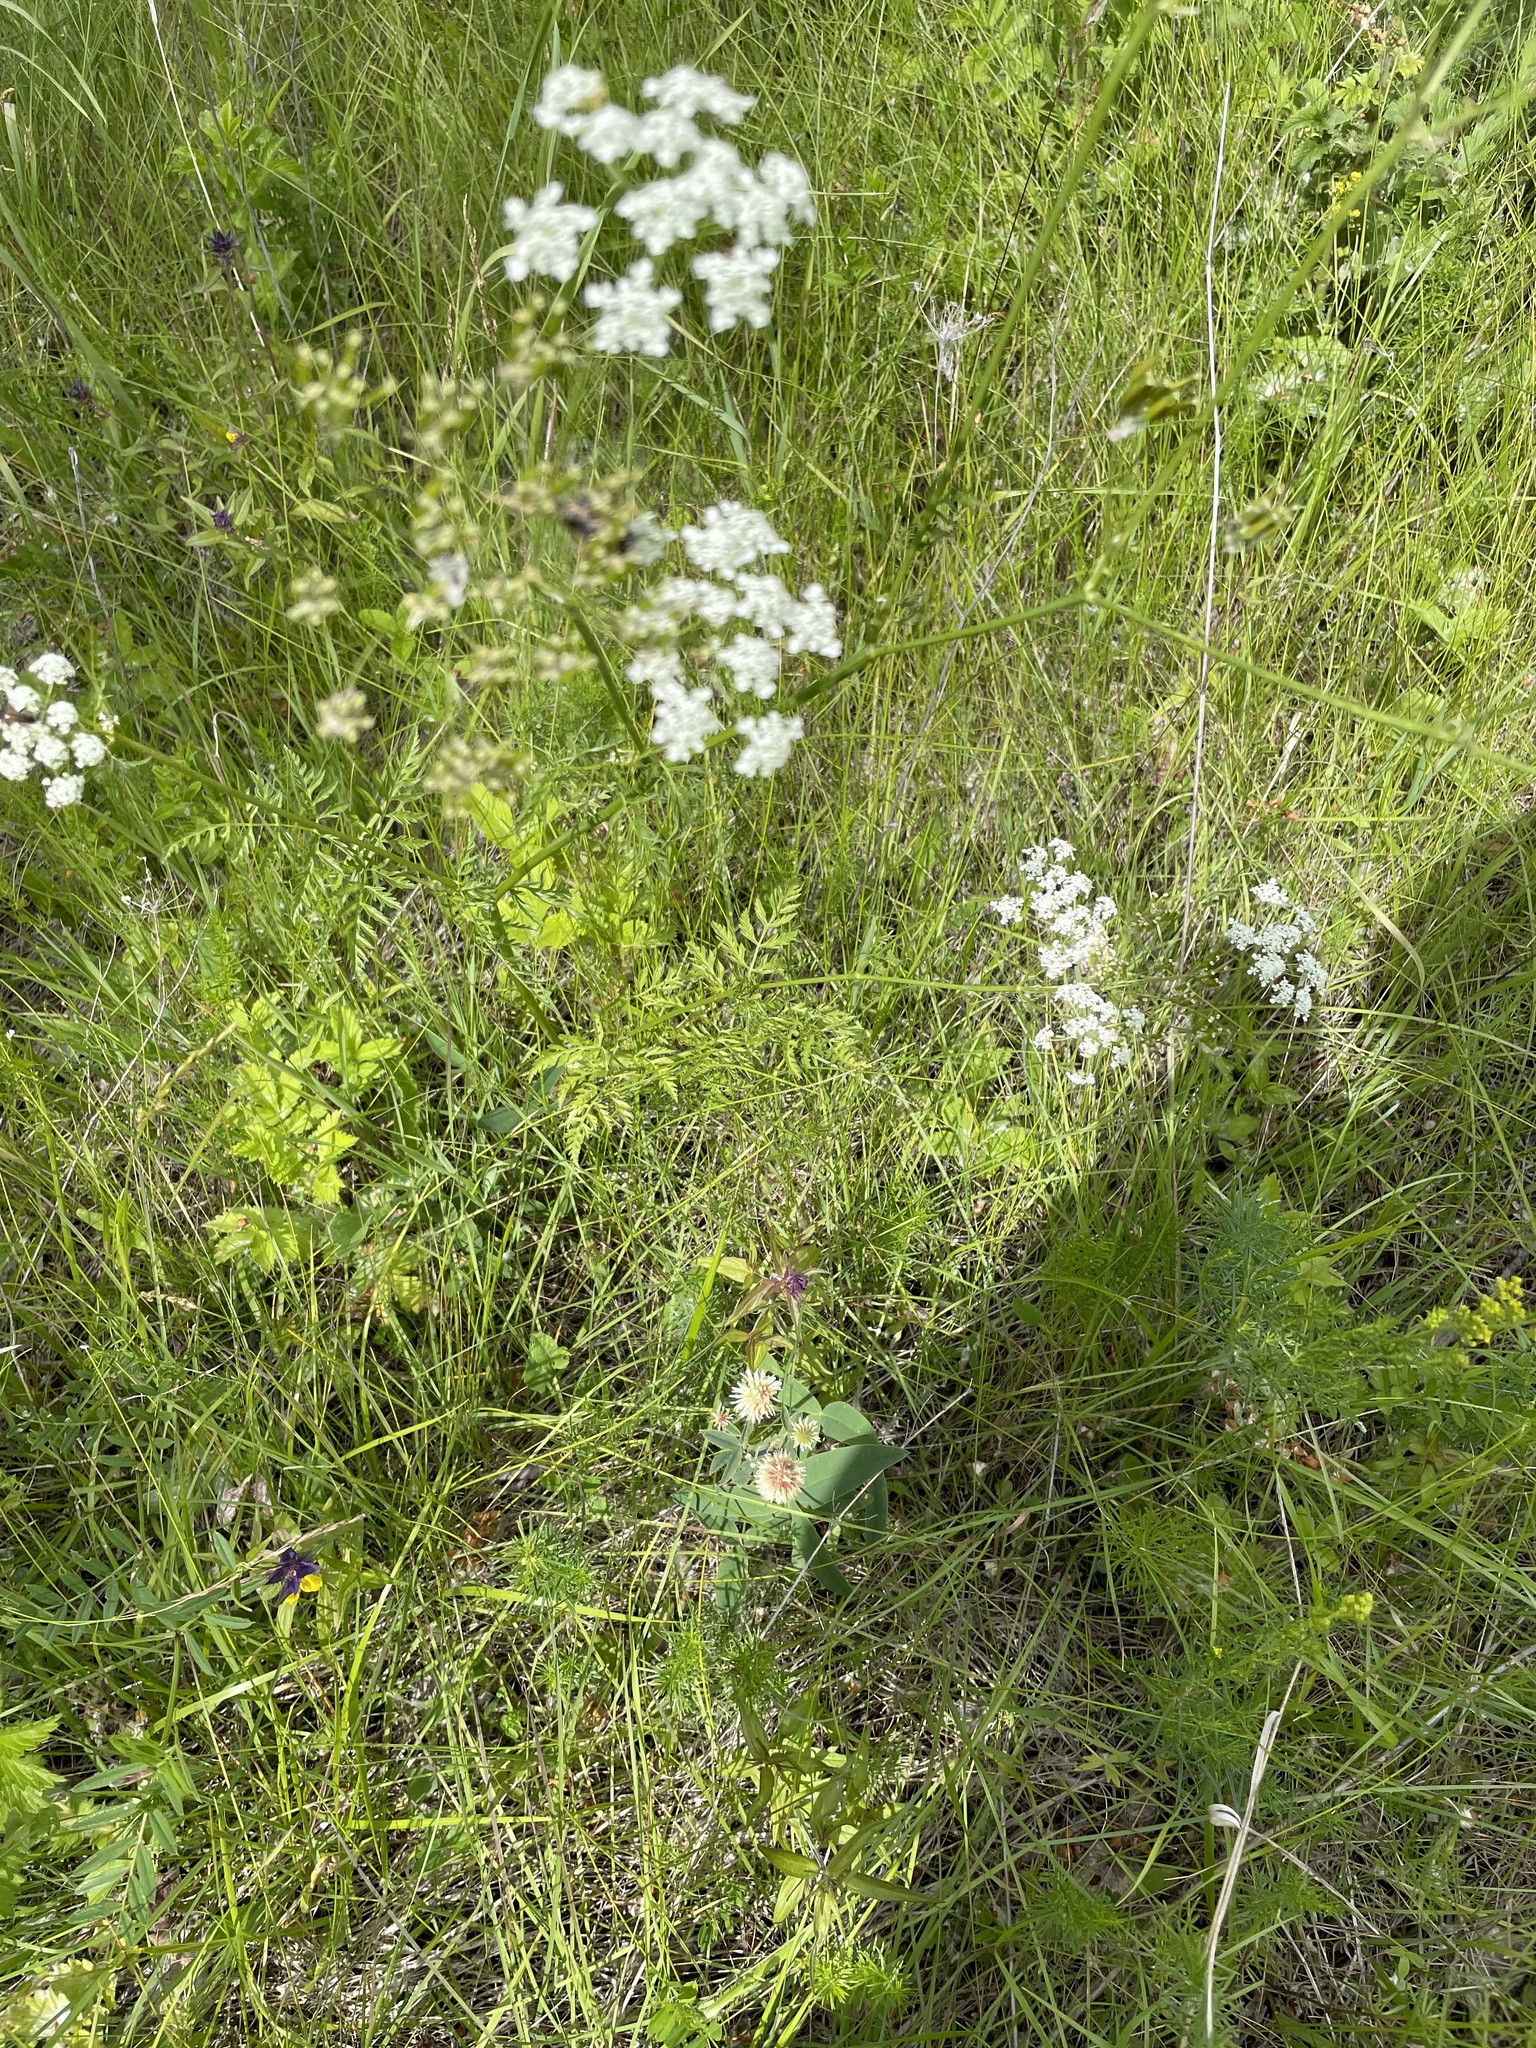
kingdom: Plantae
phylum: Tracheophyta
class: Magnoliopsida
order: Apiales
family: Apiaceae
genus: Anthriscus
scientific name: Anthriscus sylvestris
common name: Cow parsley
